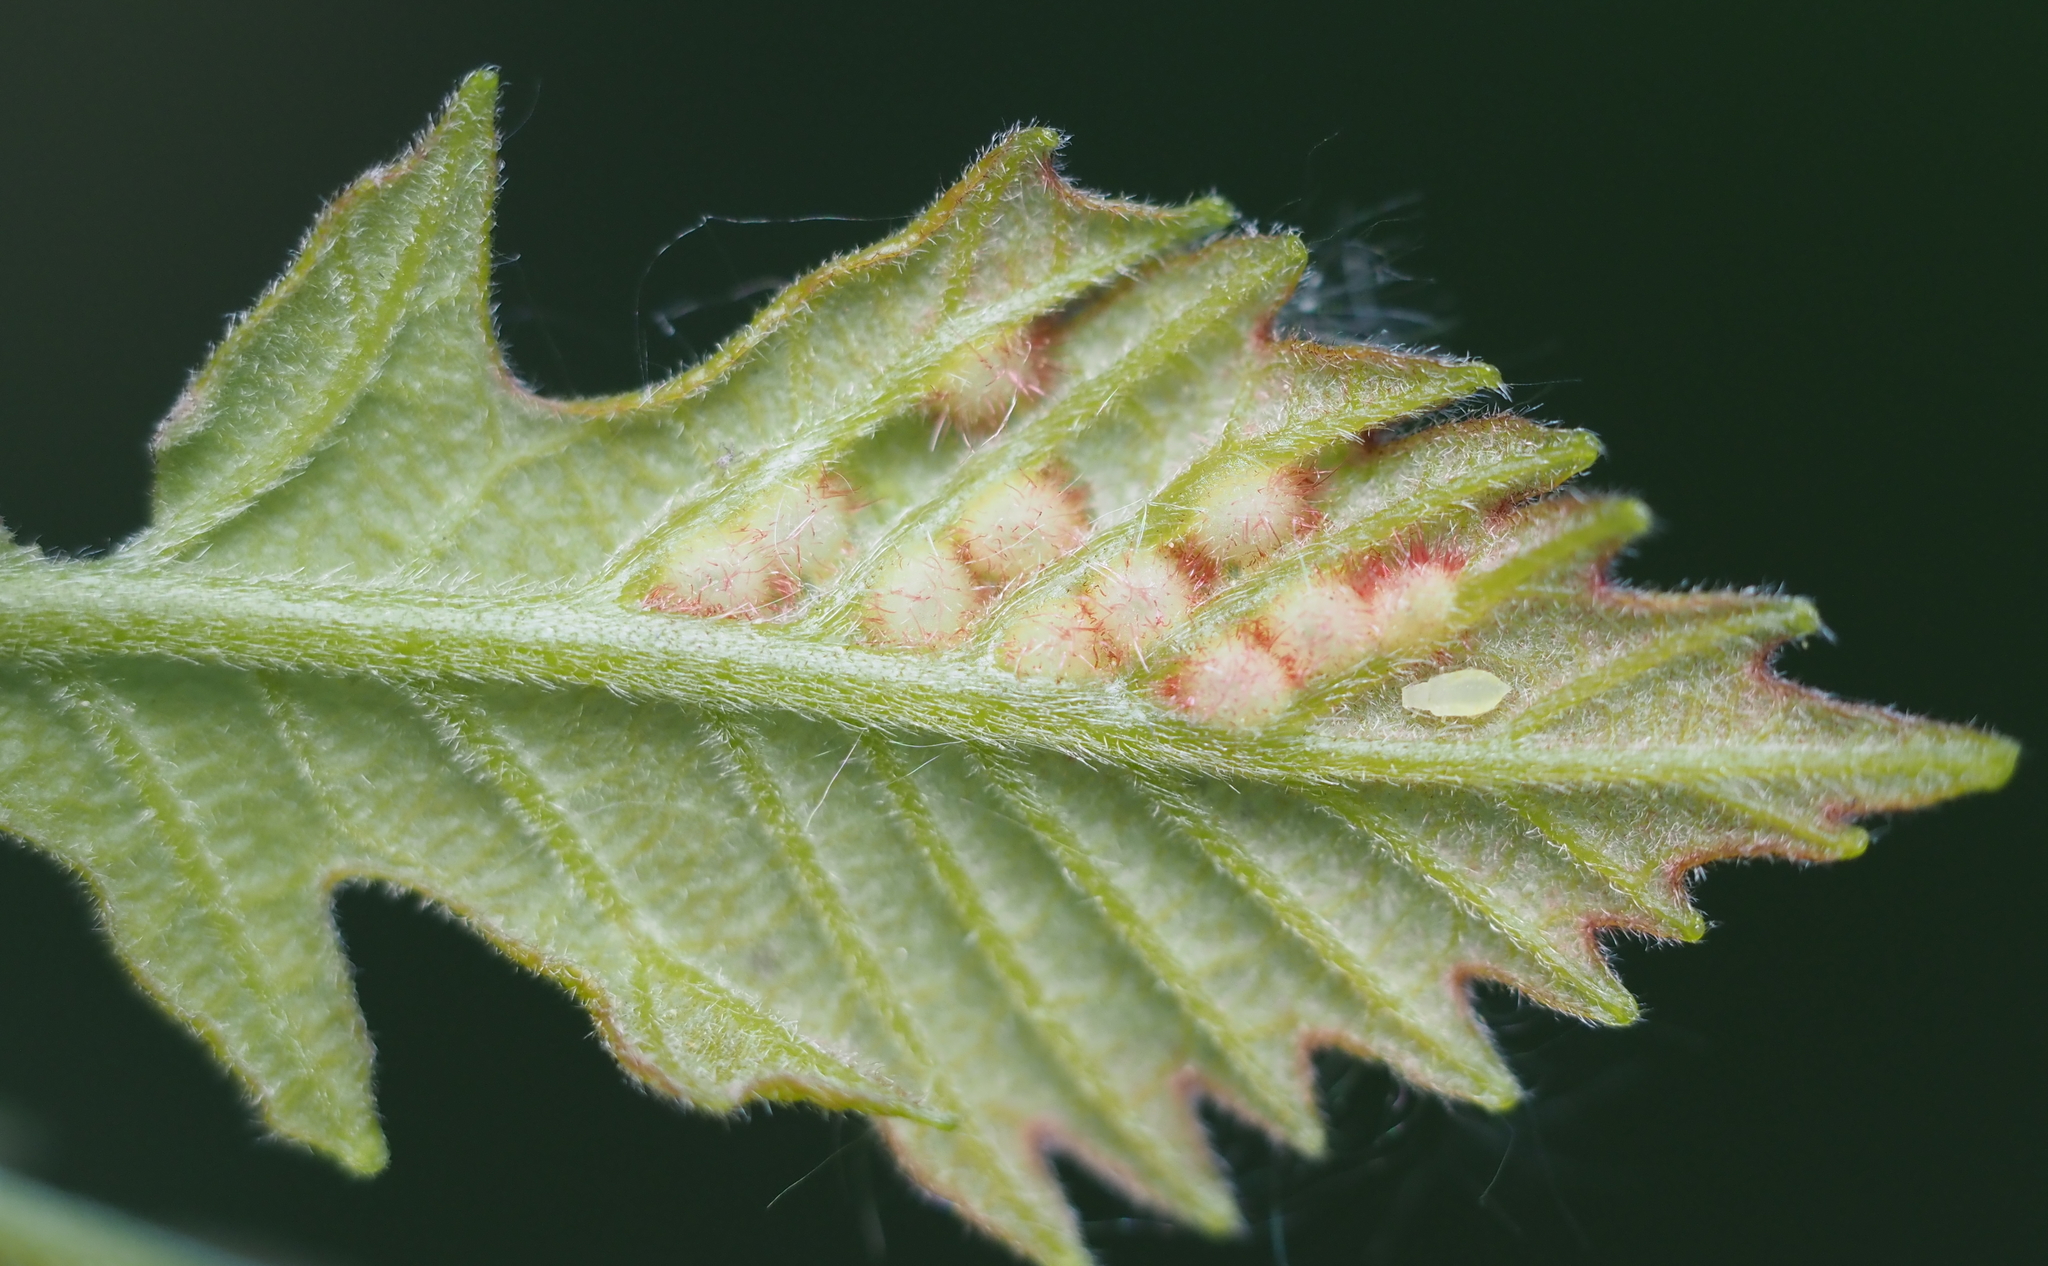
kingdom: Animalia
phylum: Arthropoda
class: Insecta
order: Hymenoptera
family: Cynipidae
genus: Neuroterus
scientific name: Neuroterus
